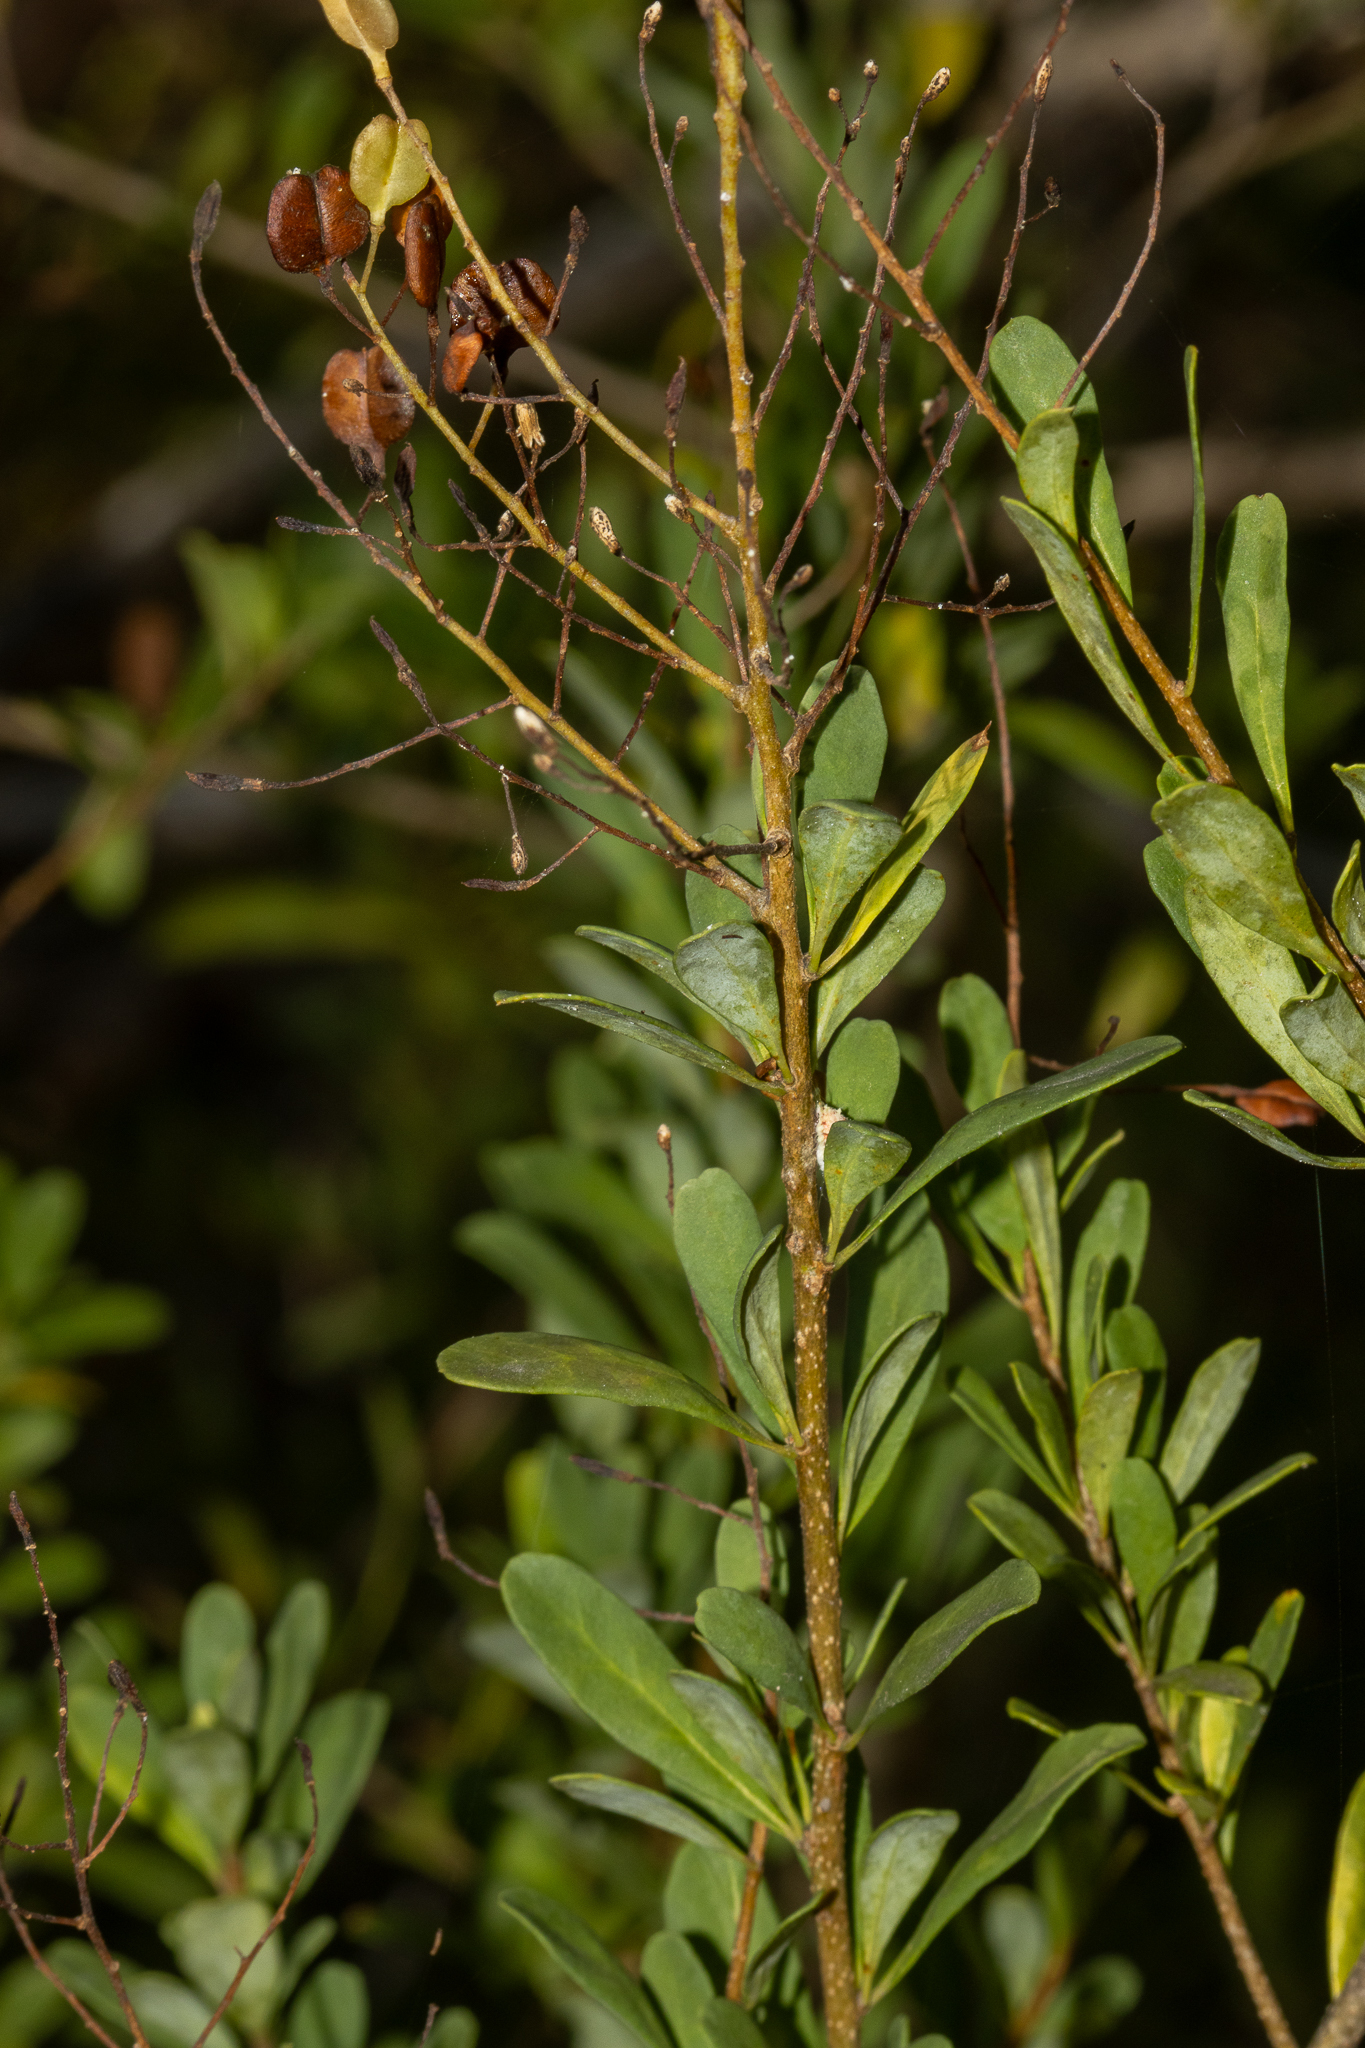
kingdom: Plantae
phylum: Tracheophyta
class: Magnoliopsida
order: Apiales
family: Pittosporaceae
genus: Bursaria
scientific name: Bursaria spinosa
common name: Australian blackthorn
